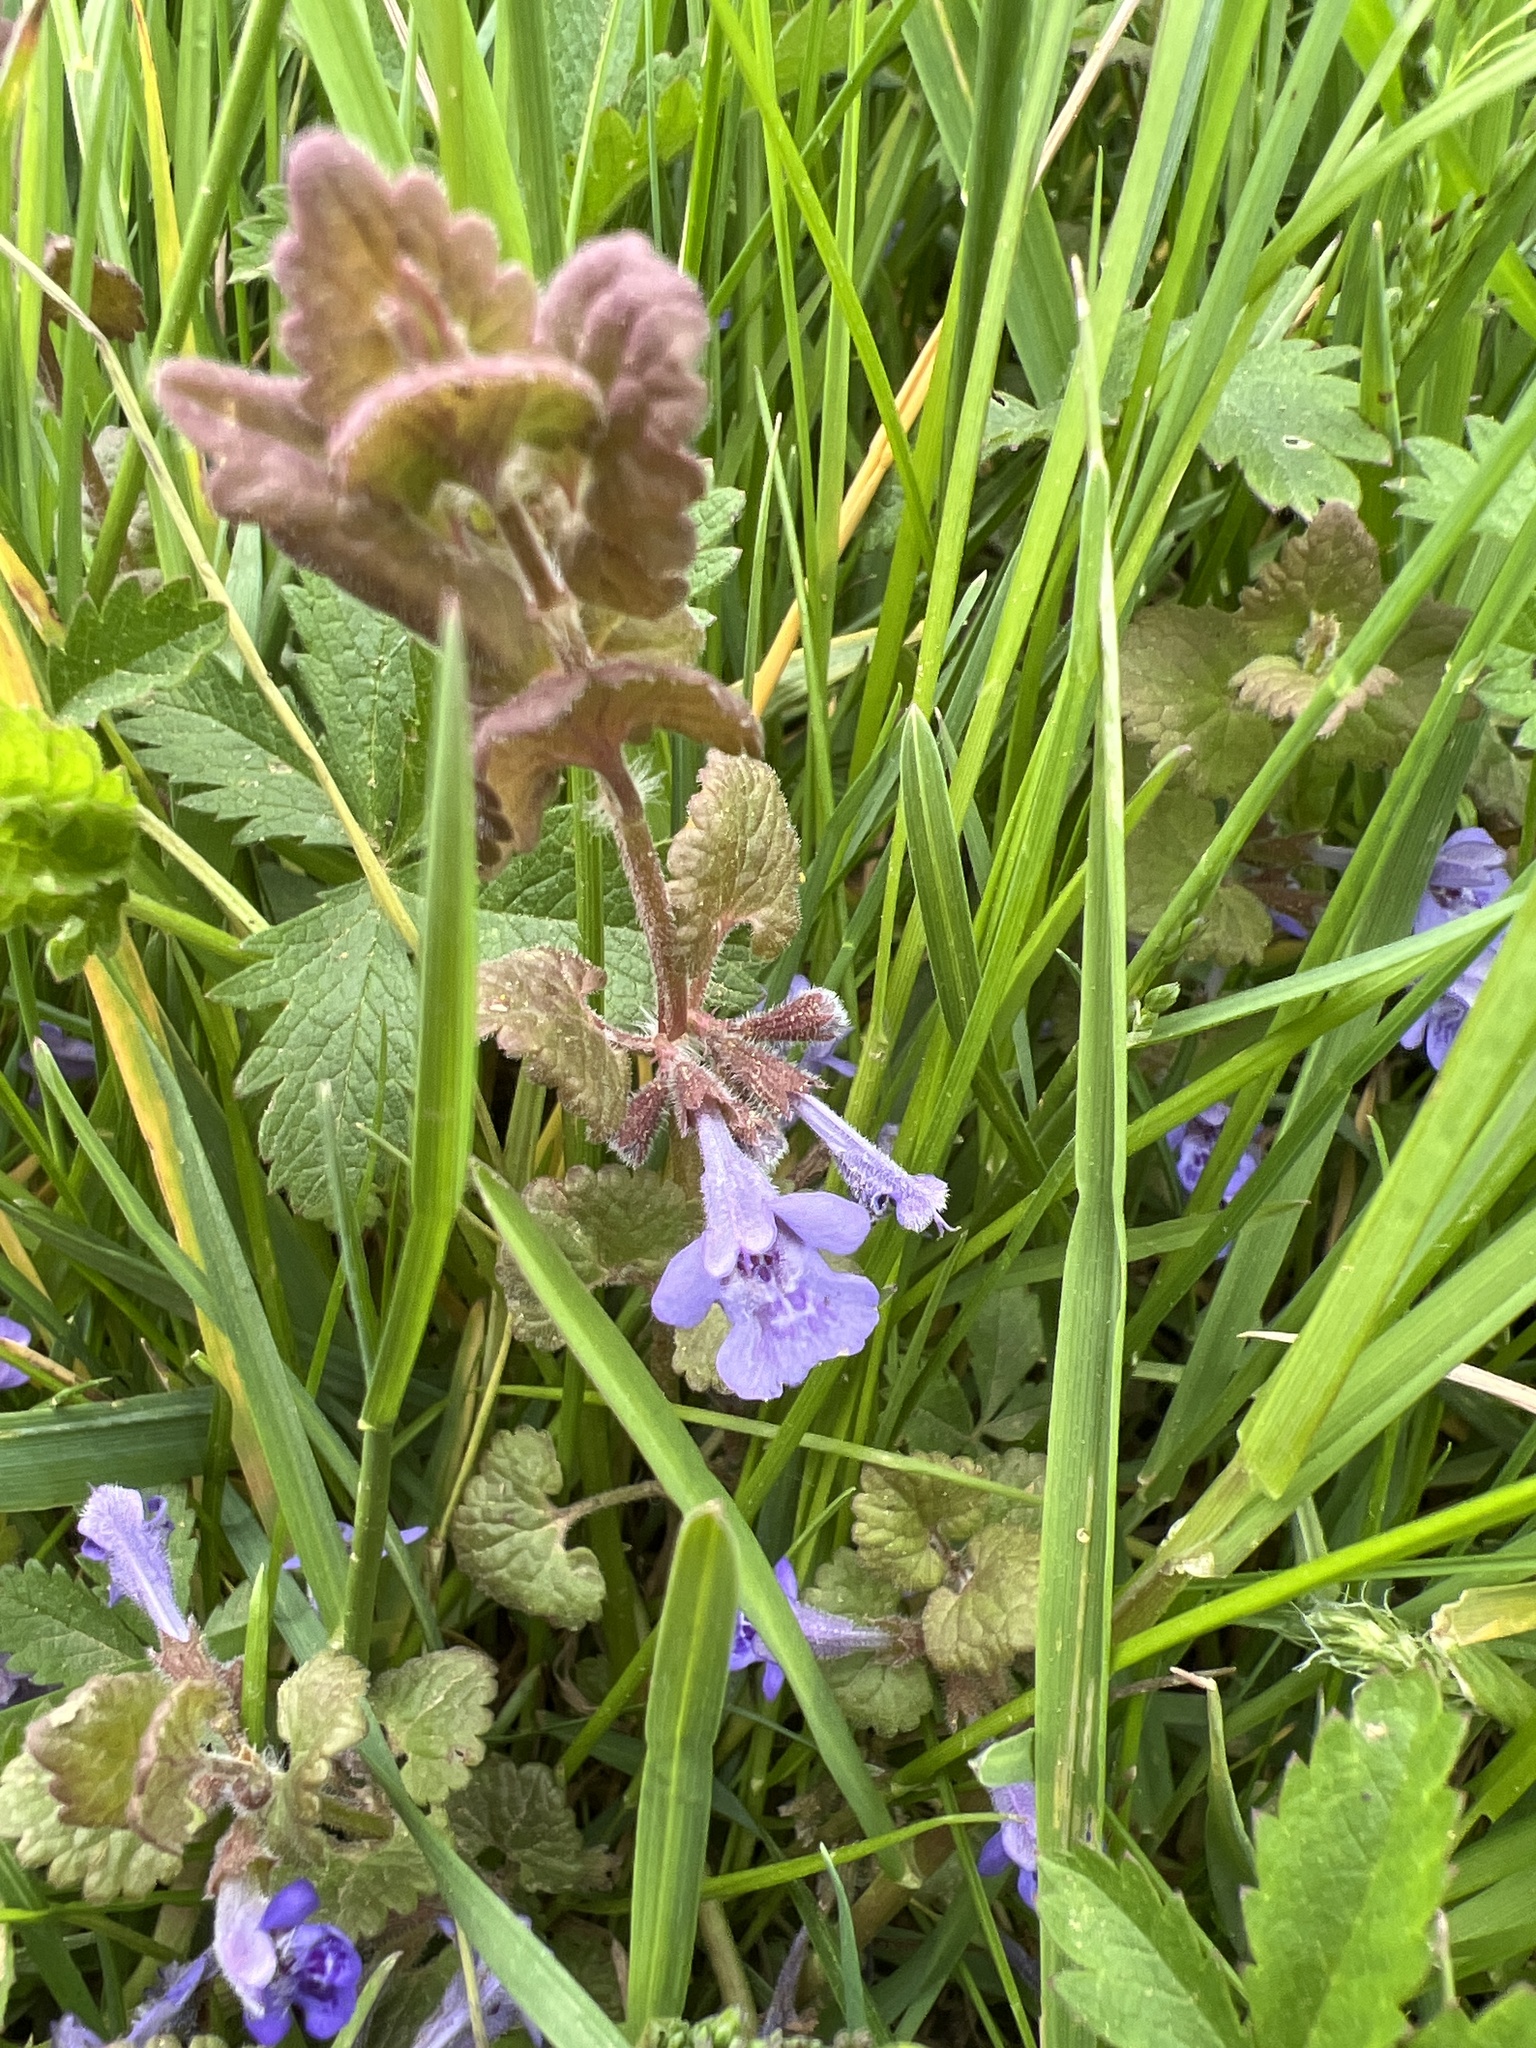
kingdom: Plantae
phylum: Tracheophyta
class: Magnoliopsida
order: Lamiales
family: Lamiaceae
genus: Glechoma
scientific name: Glechoma hederacea
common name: Ground ivy
